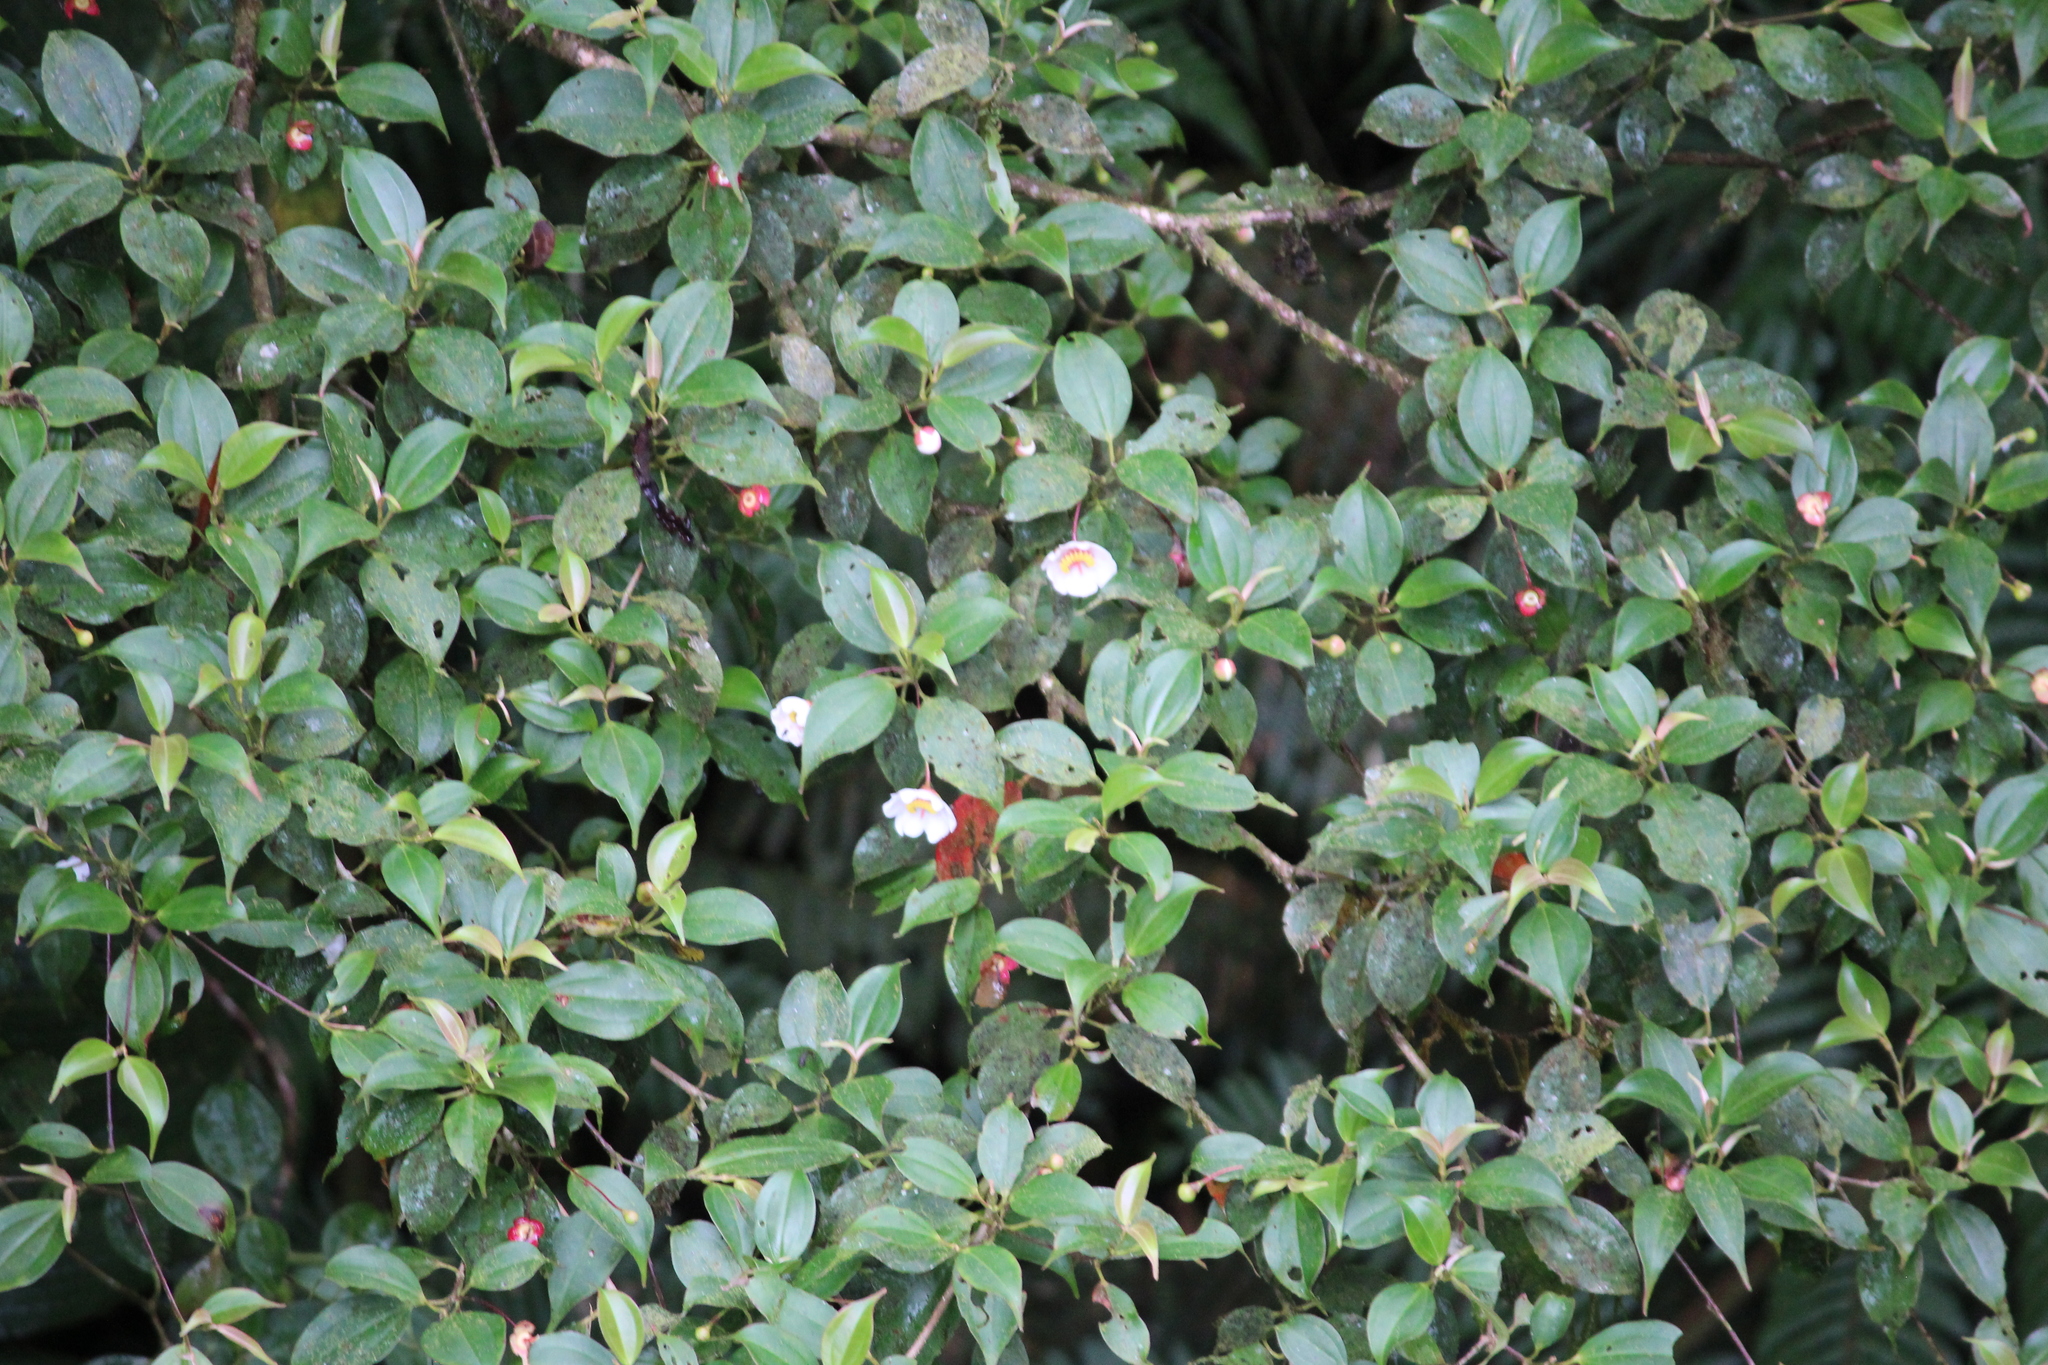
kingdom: Plantae
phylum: Tracheophyta
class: Magnoliopsida
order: Myrtales
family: Melastomataceae
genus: Blakea
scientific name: Blakea anomala
